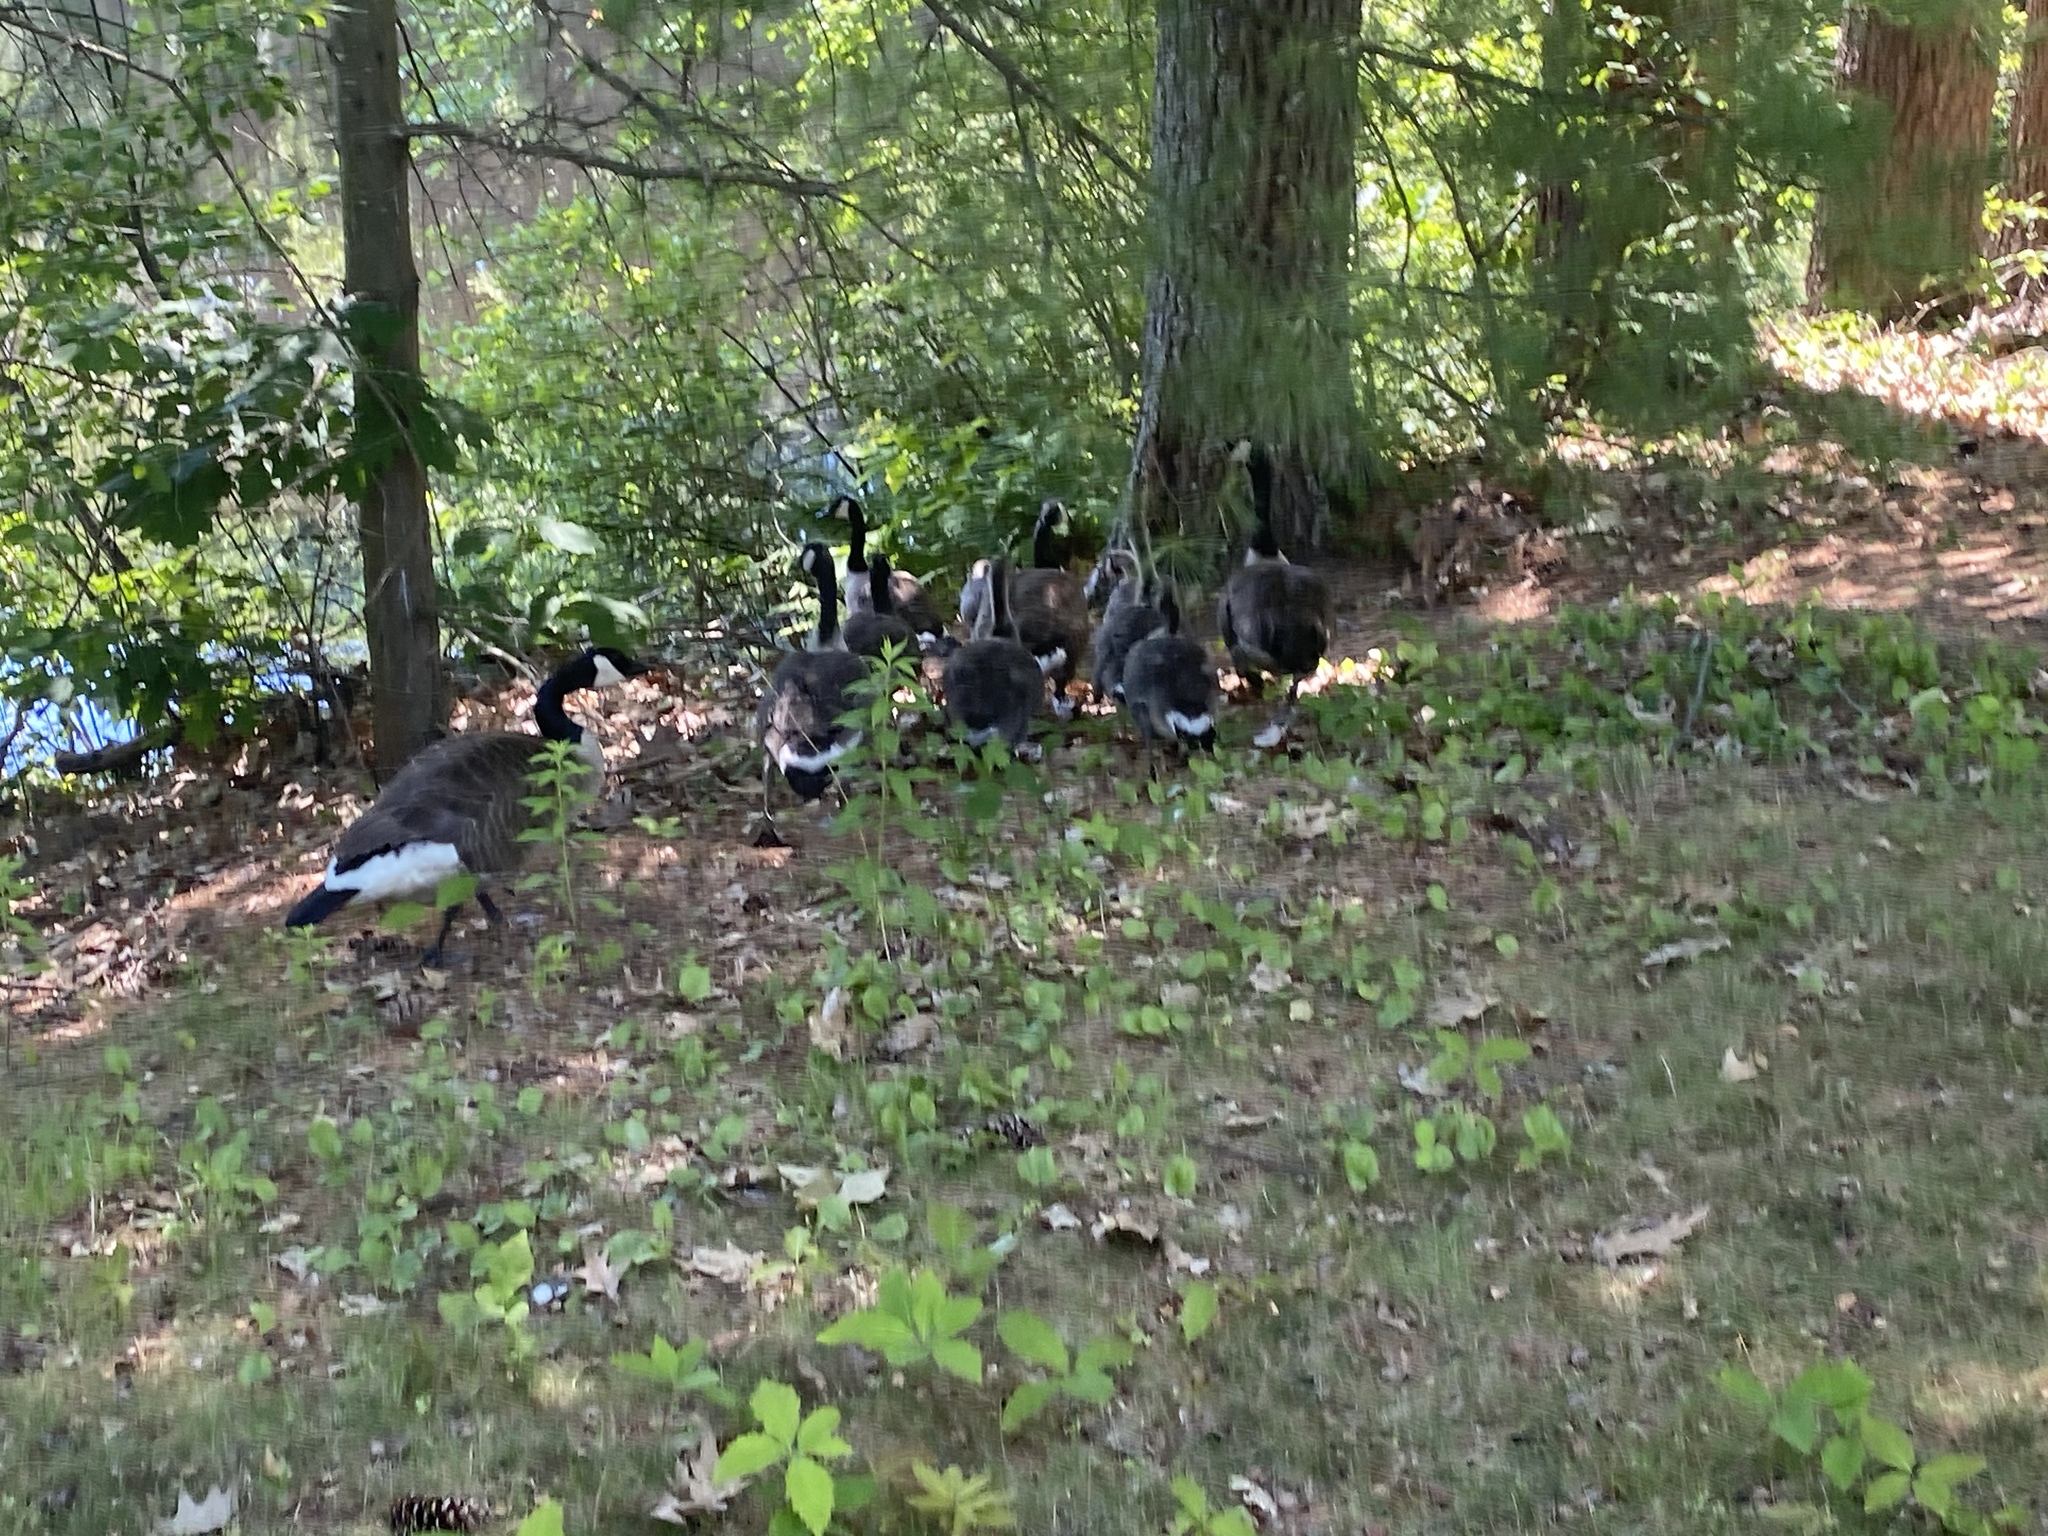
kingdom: Animalia
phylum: Chordata
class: Aves
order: Anseriformes
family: Anatidae
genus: Branta
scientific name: Branta canadensis
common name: Canada goose
